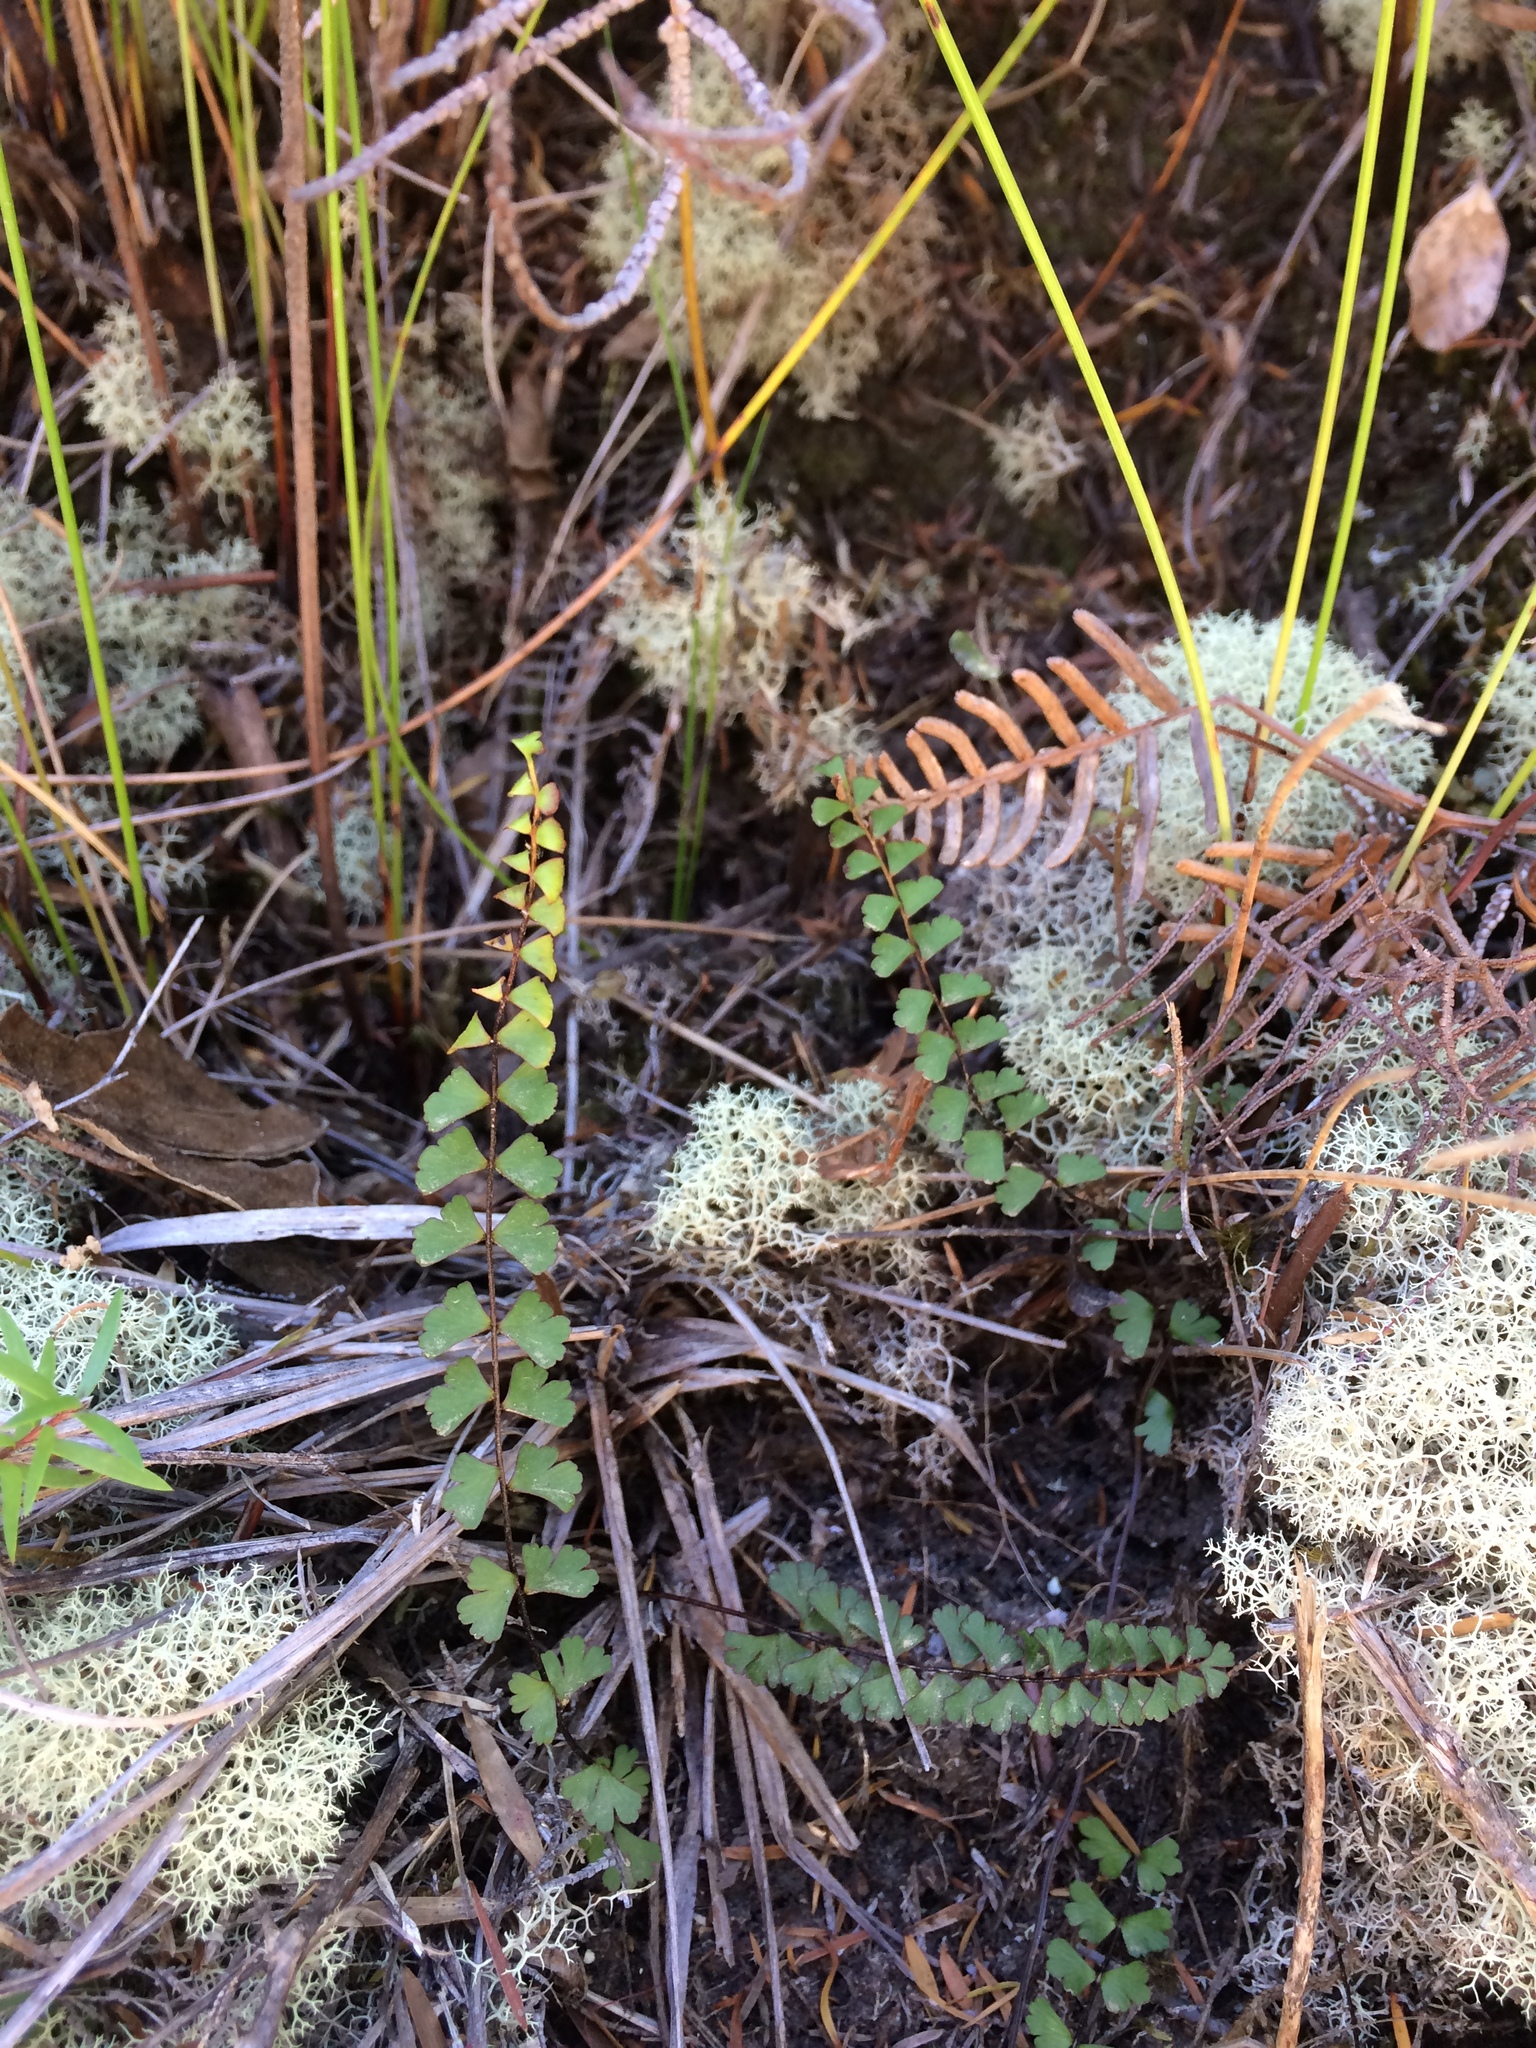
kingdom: Plantae
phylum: Tracheophyta
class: Polypodiopsida
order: Polypodiales
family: Lindsaeaceae
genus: Lindsaea
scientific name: Lindsaea linearis
